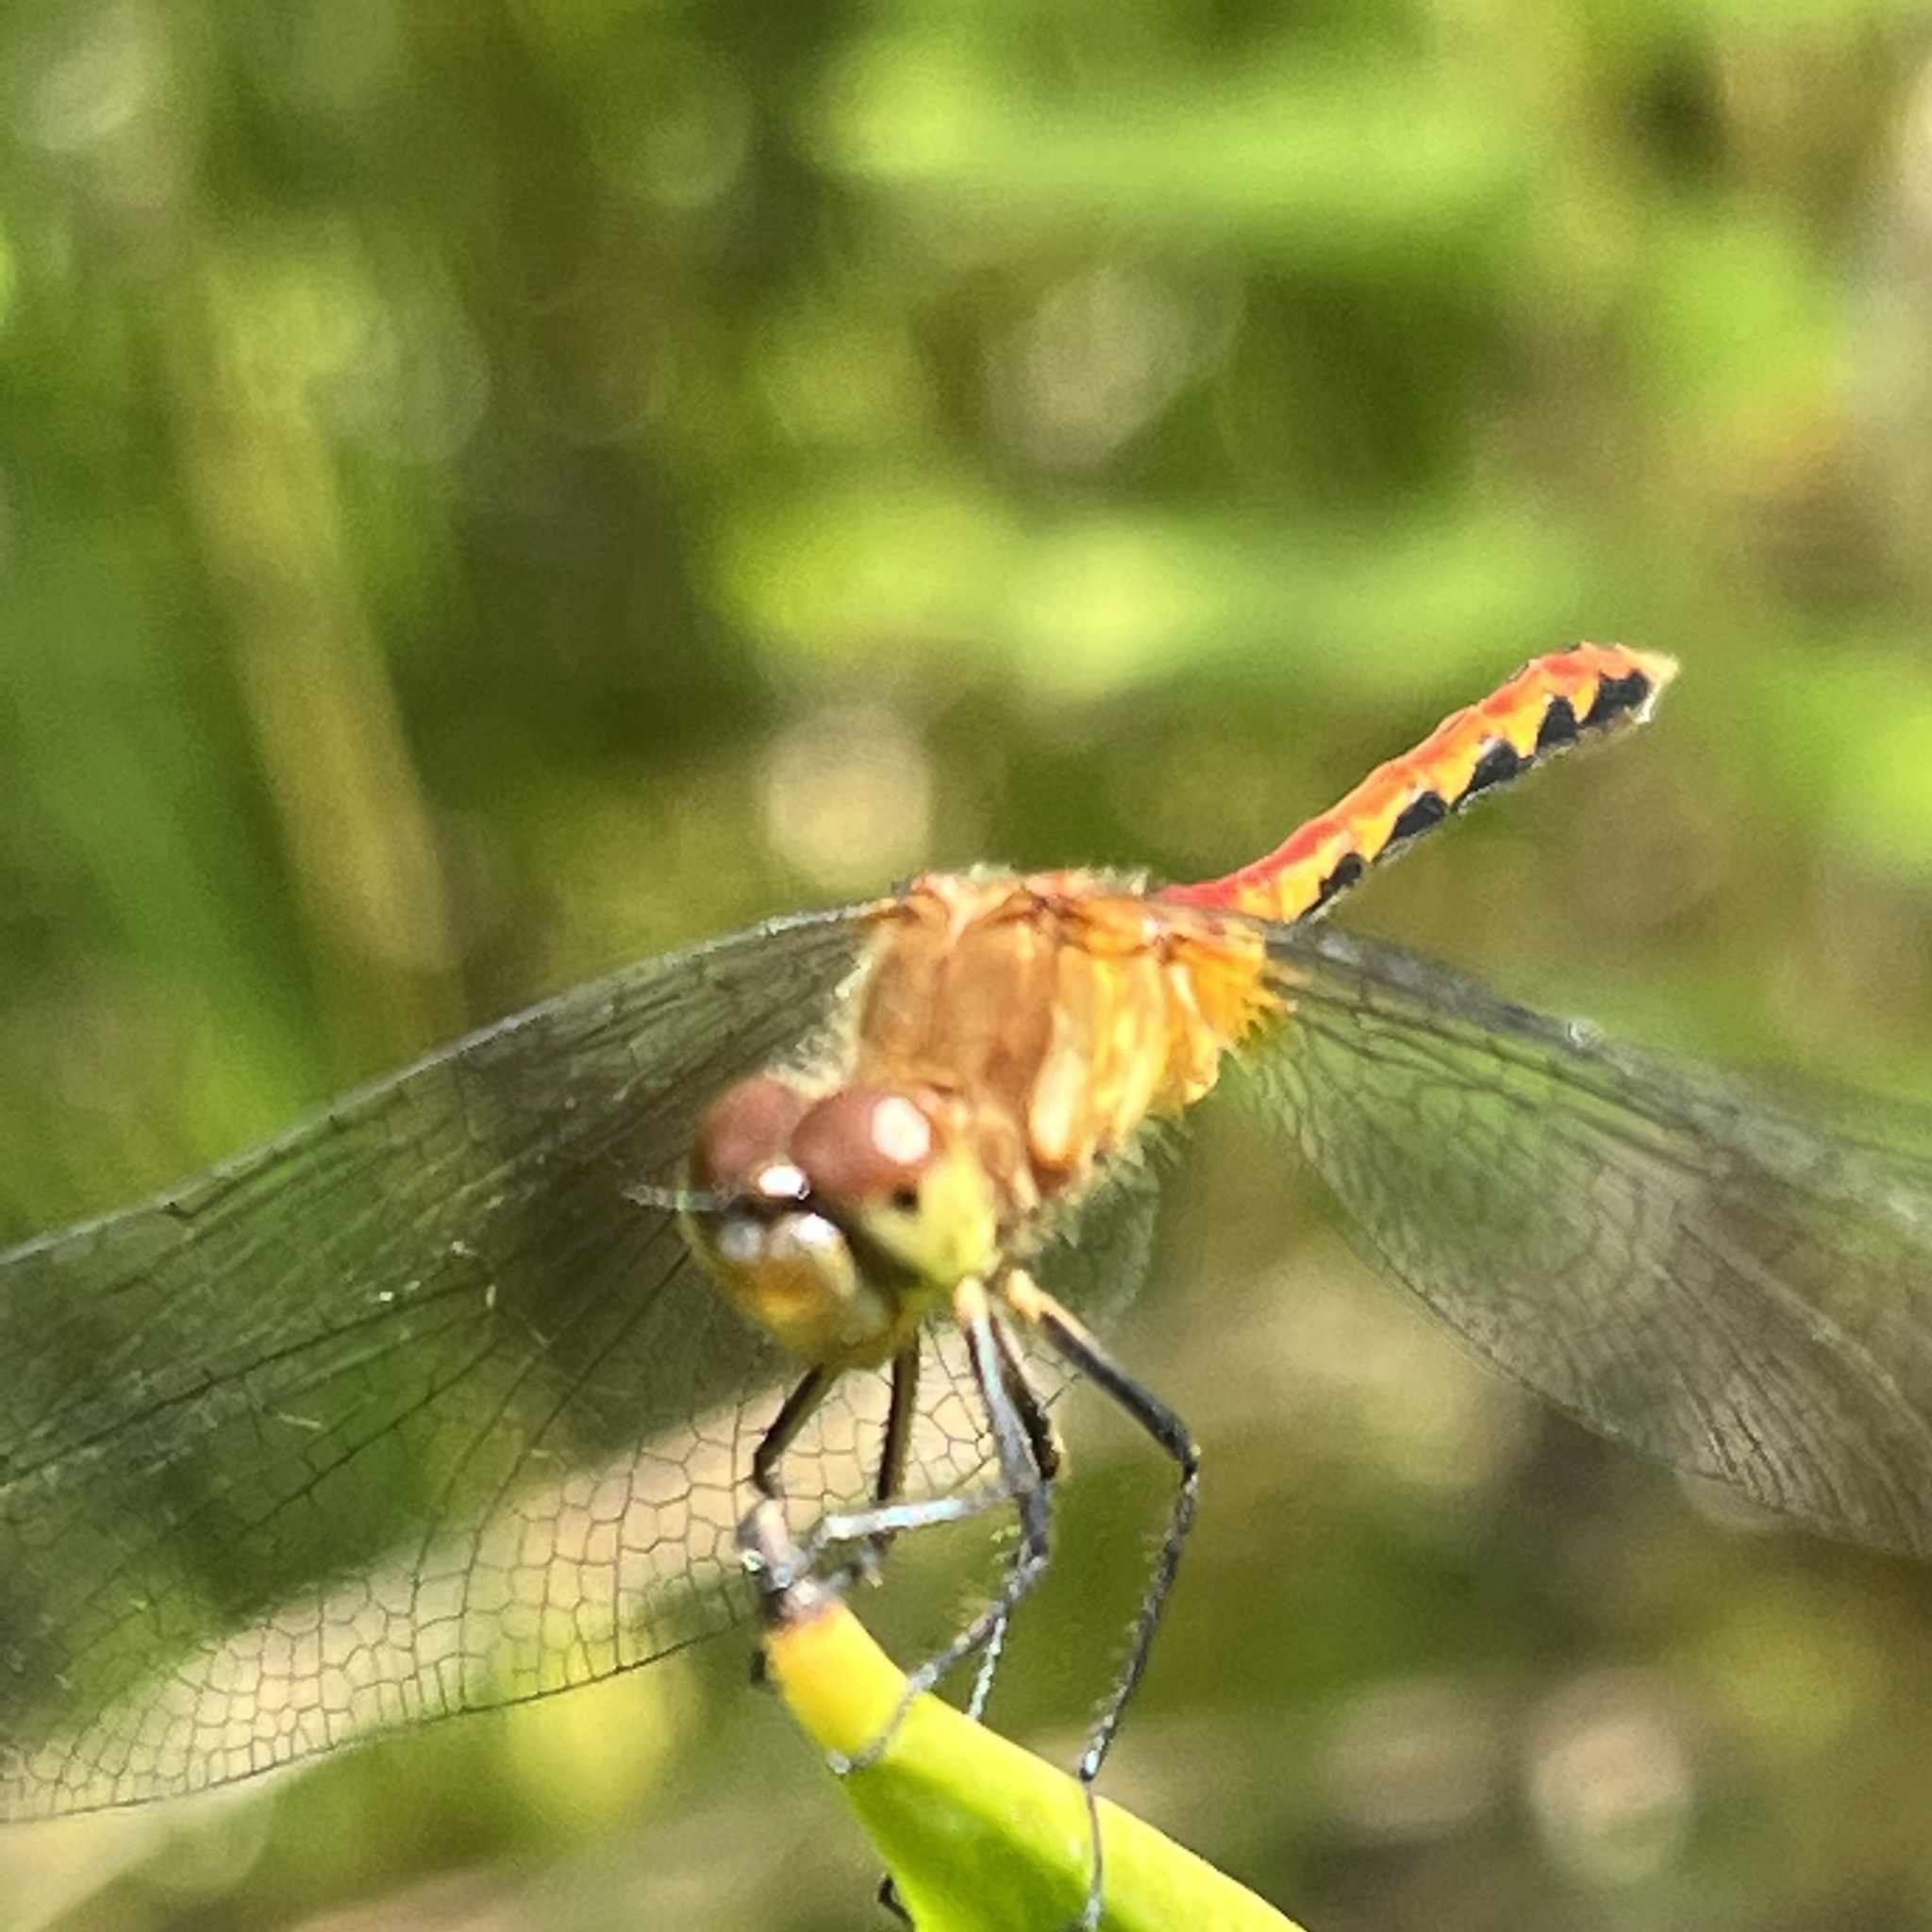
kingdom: Animalia
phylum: Arthropoda
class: Insecta
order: Odonata
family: Libellulidae
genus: Sympetrum
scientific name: Sympetrum
